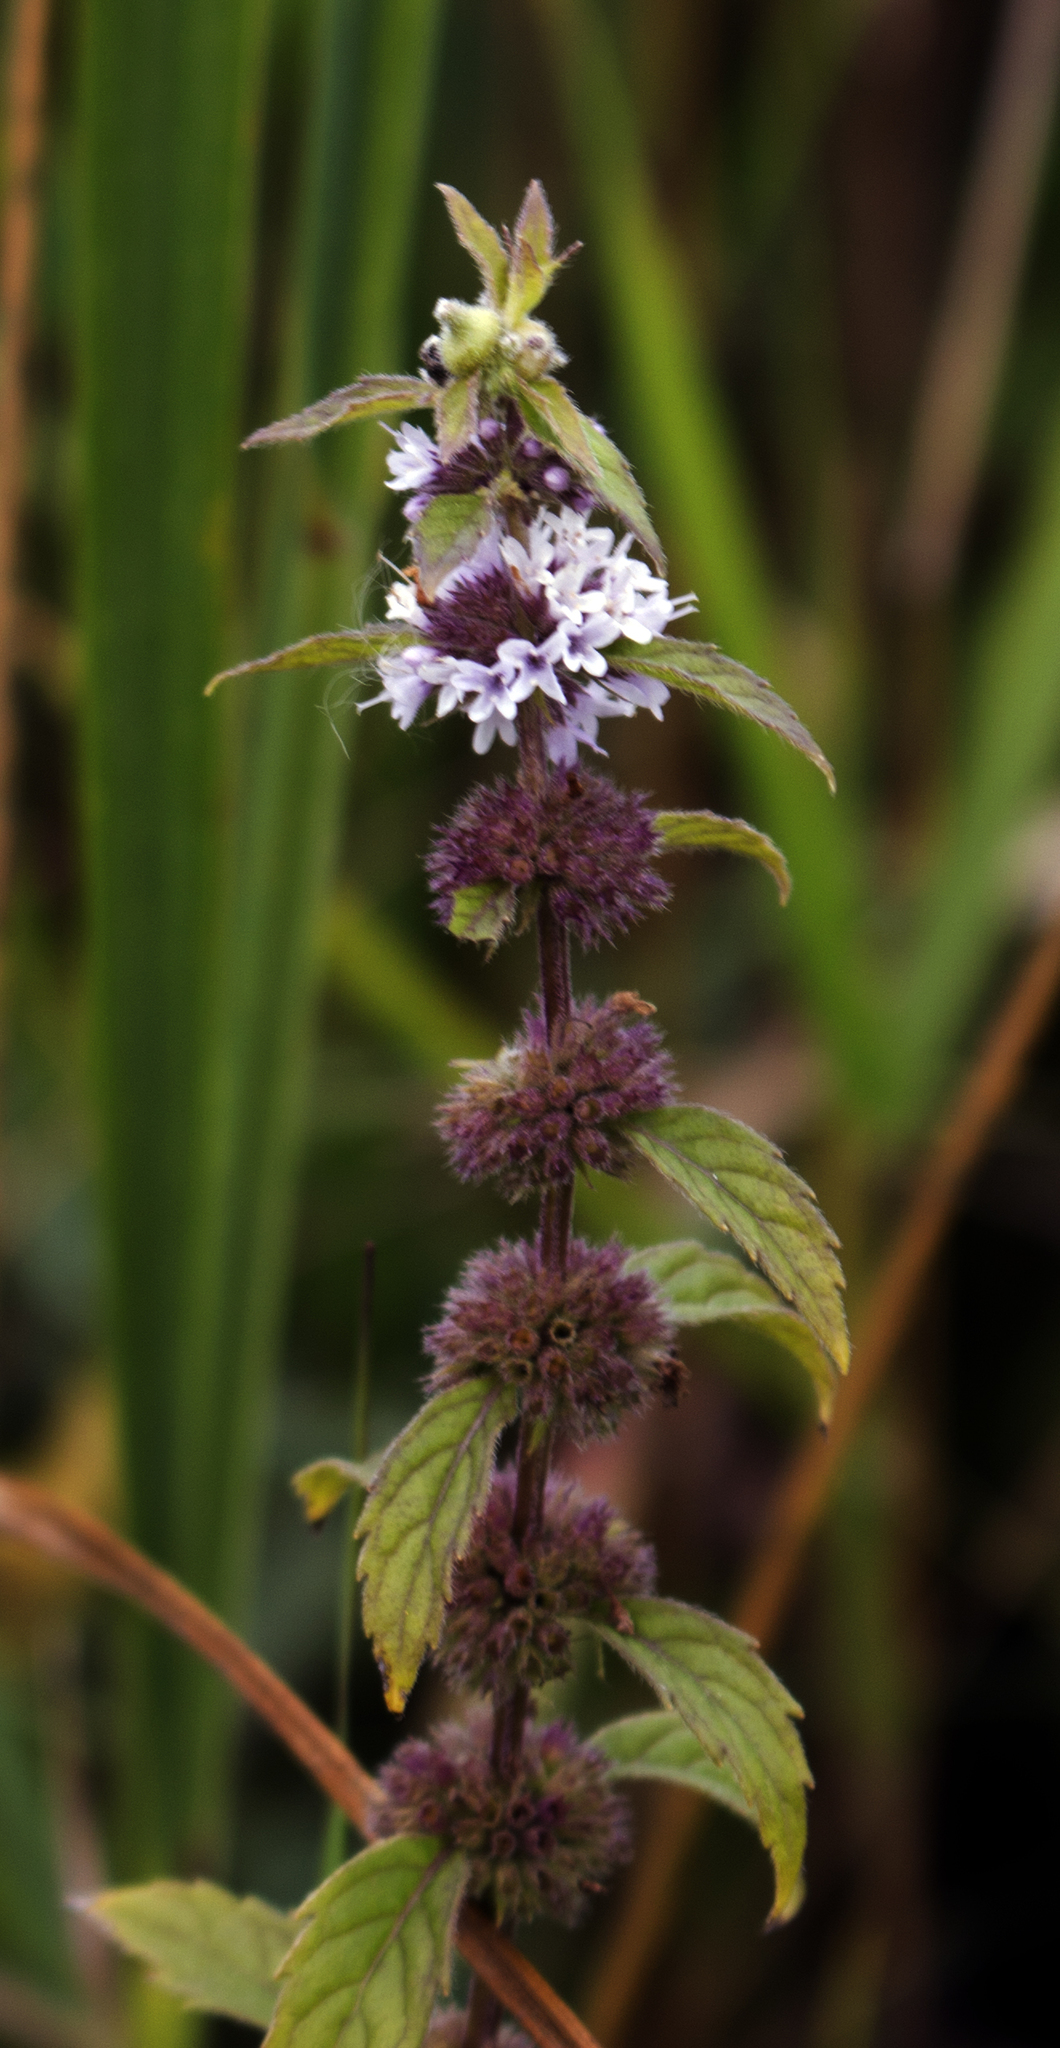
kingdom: Plantae
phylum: Tracheophyta
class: Magnoliopsida
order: Lamiales
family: Lamiaceae
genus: Mentha
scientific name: Mentha arvensis
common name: Corn mint
